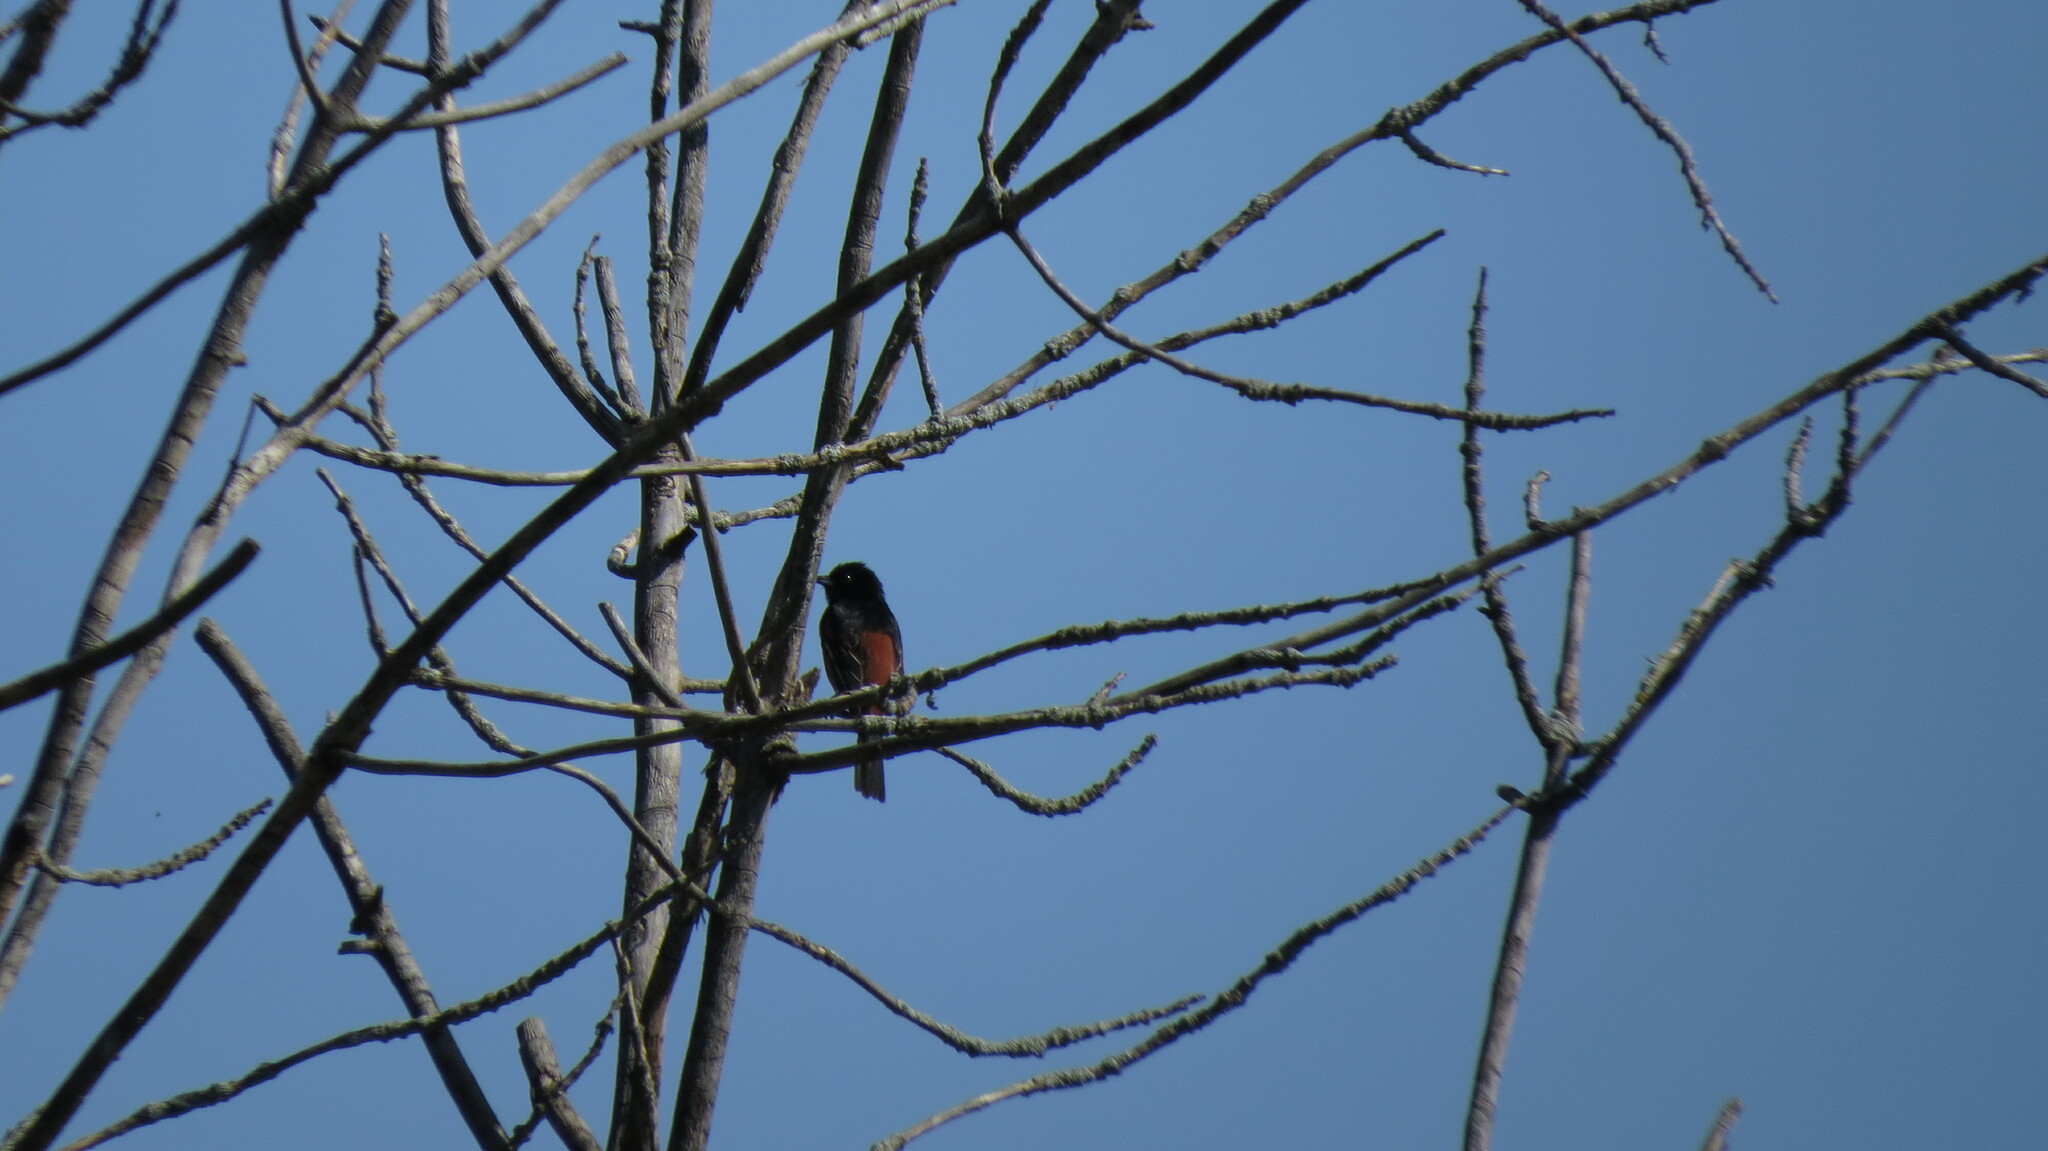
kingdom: Animalia
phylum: Chordata
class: Aves
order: Passeriformes
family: Icteridae
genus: Icterus
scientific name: Icterus spurius
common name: Orchard oriole
